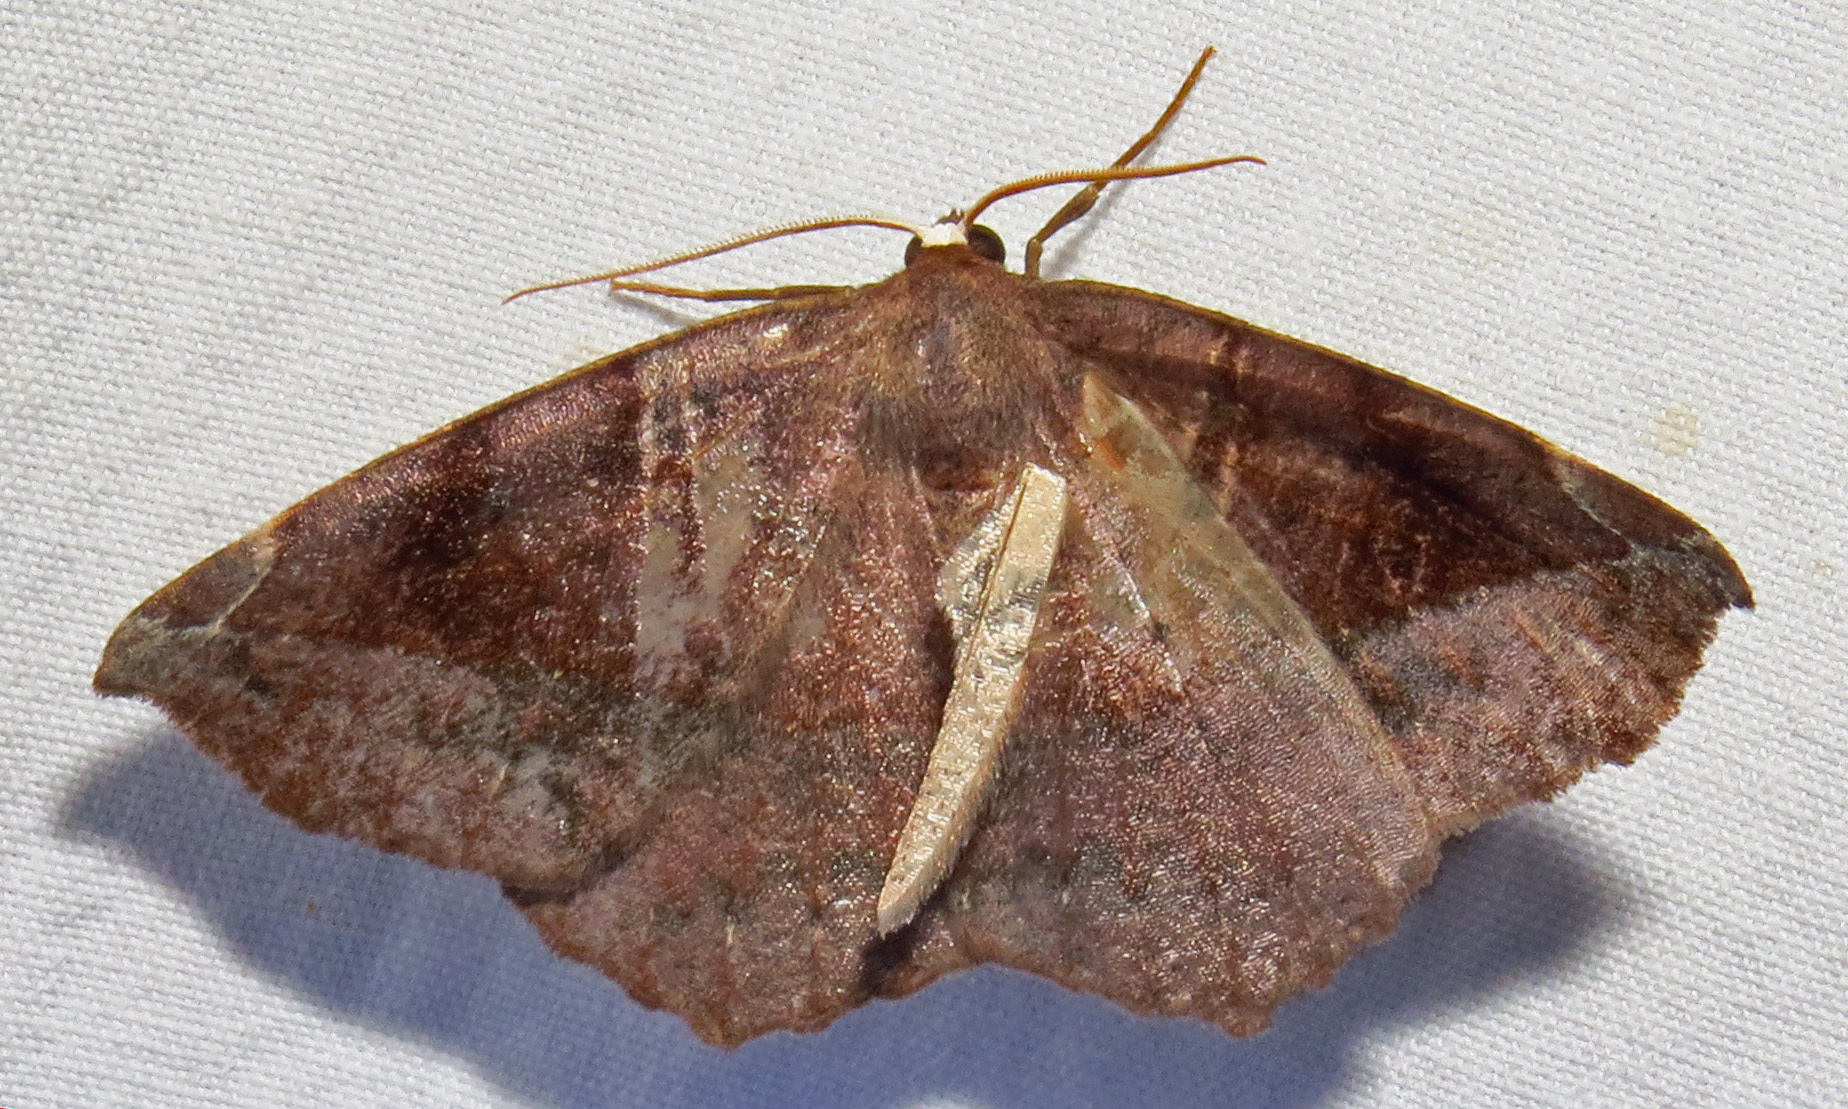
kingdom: Animalia
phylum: Arthropoda
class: Insecta
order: Lepidoptera
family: Geometridae
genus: Eutrapela
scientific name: Eutrapela clemataria
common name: Curved-toothed geometer
